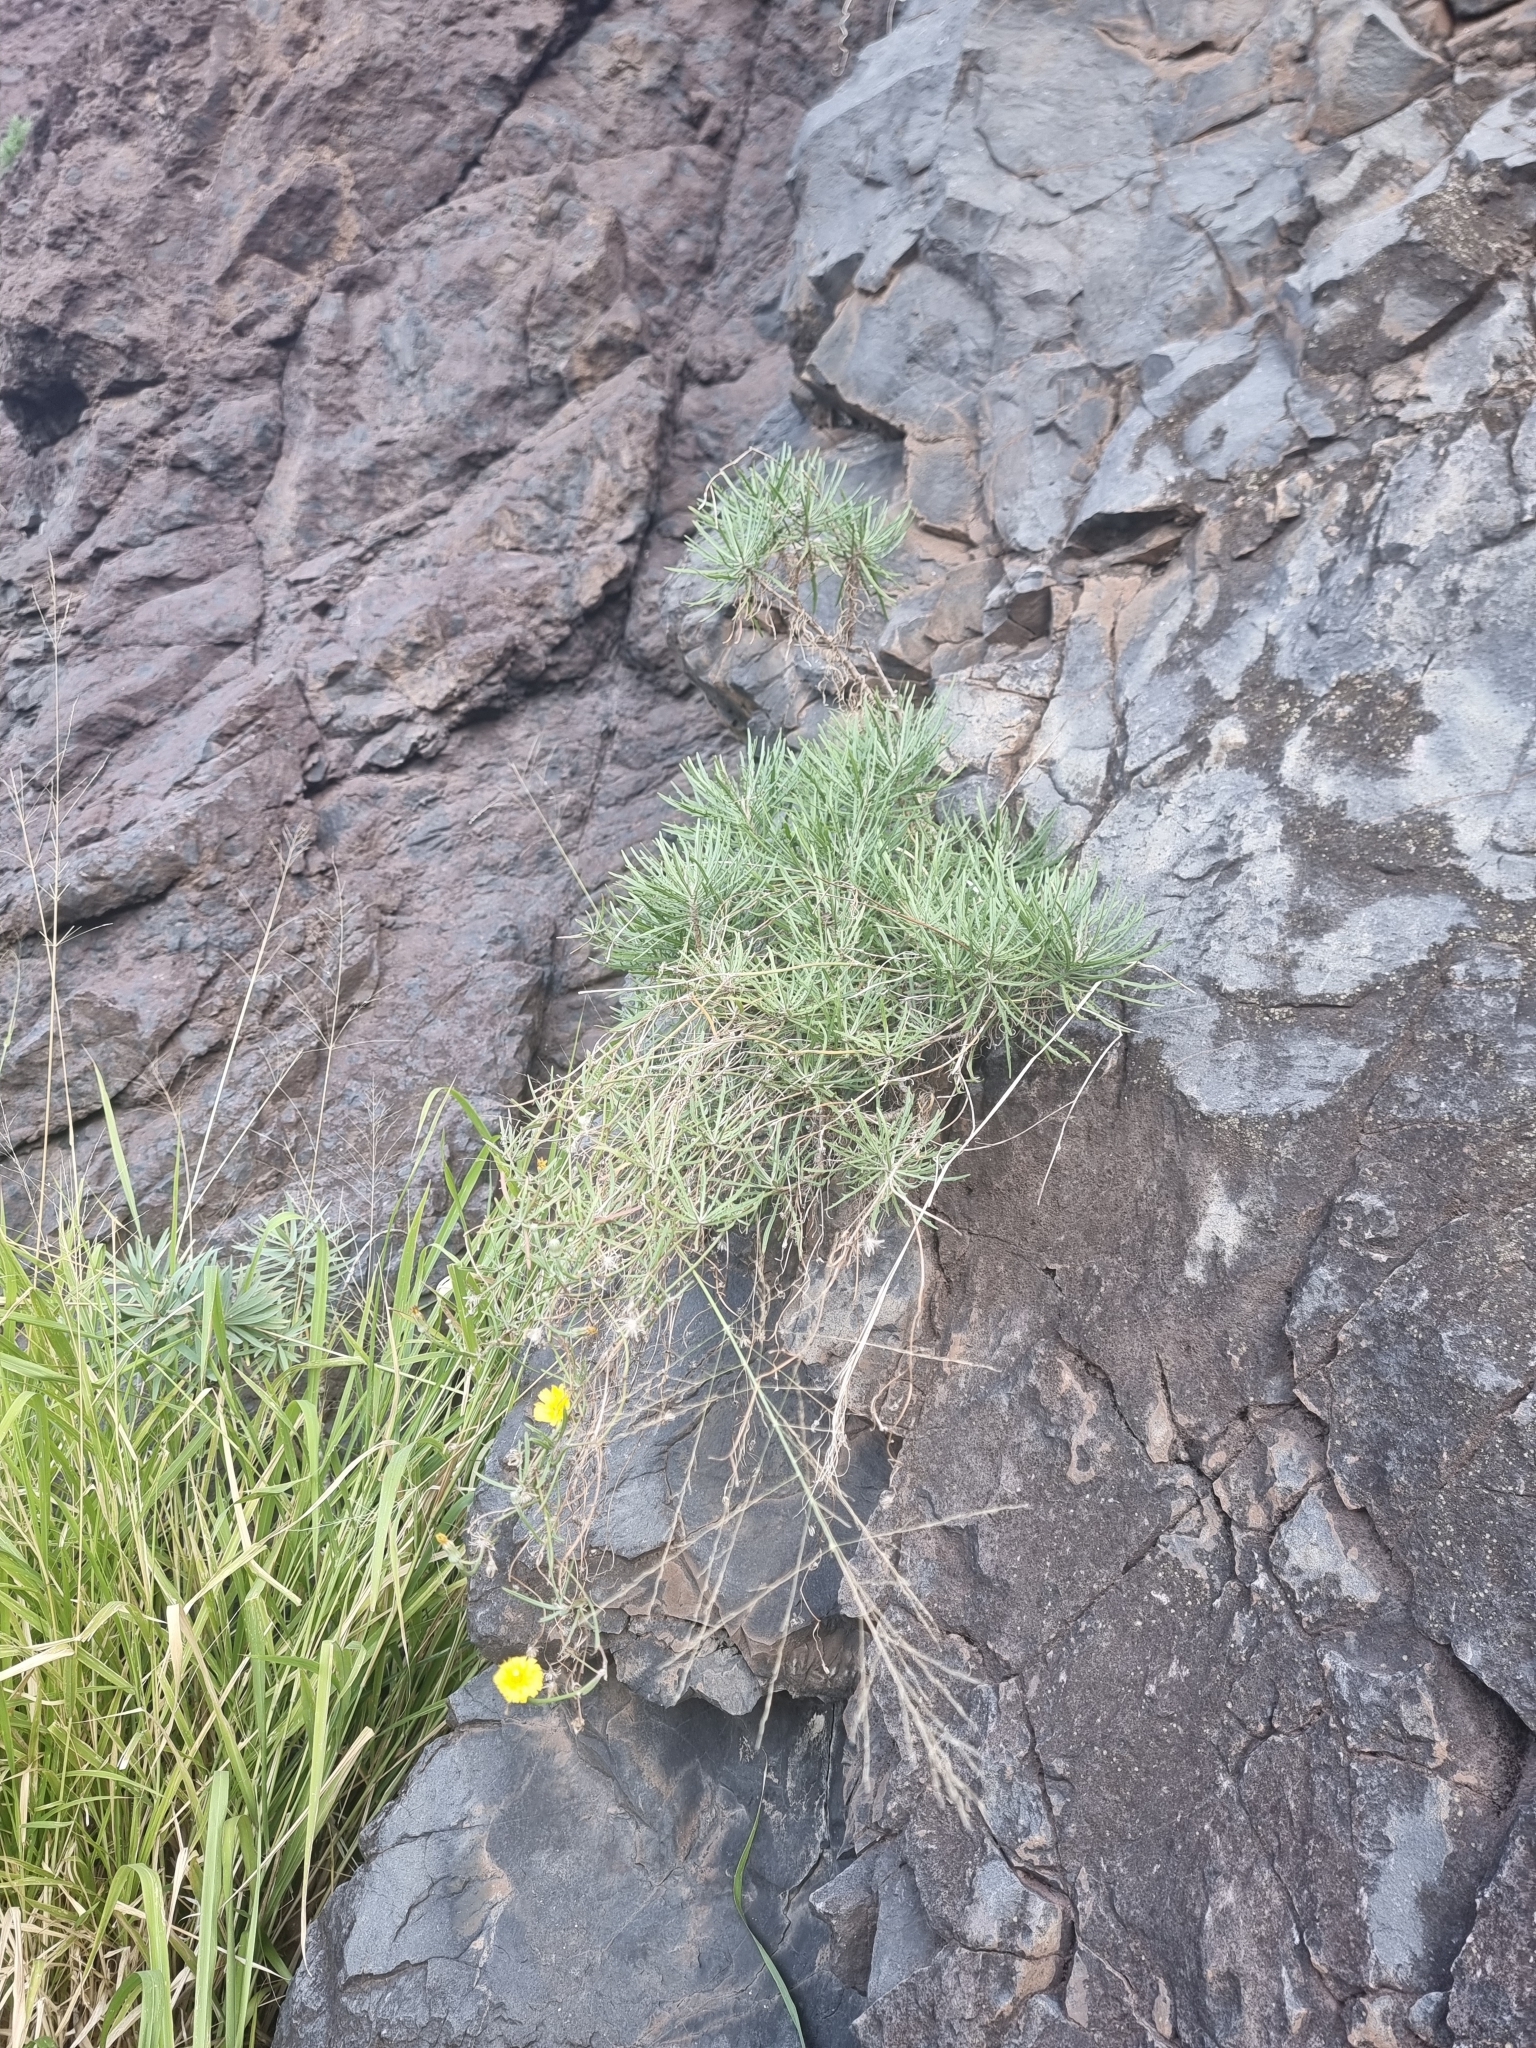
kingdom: Plantae
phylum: Tracheophyta
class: Magnoliopsida
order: Asterales
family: Asteraceae
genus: Tolpis
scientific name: Tolpis succulenta
